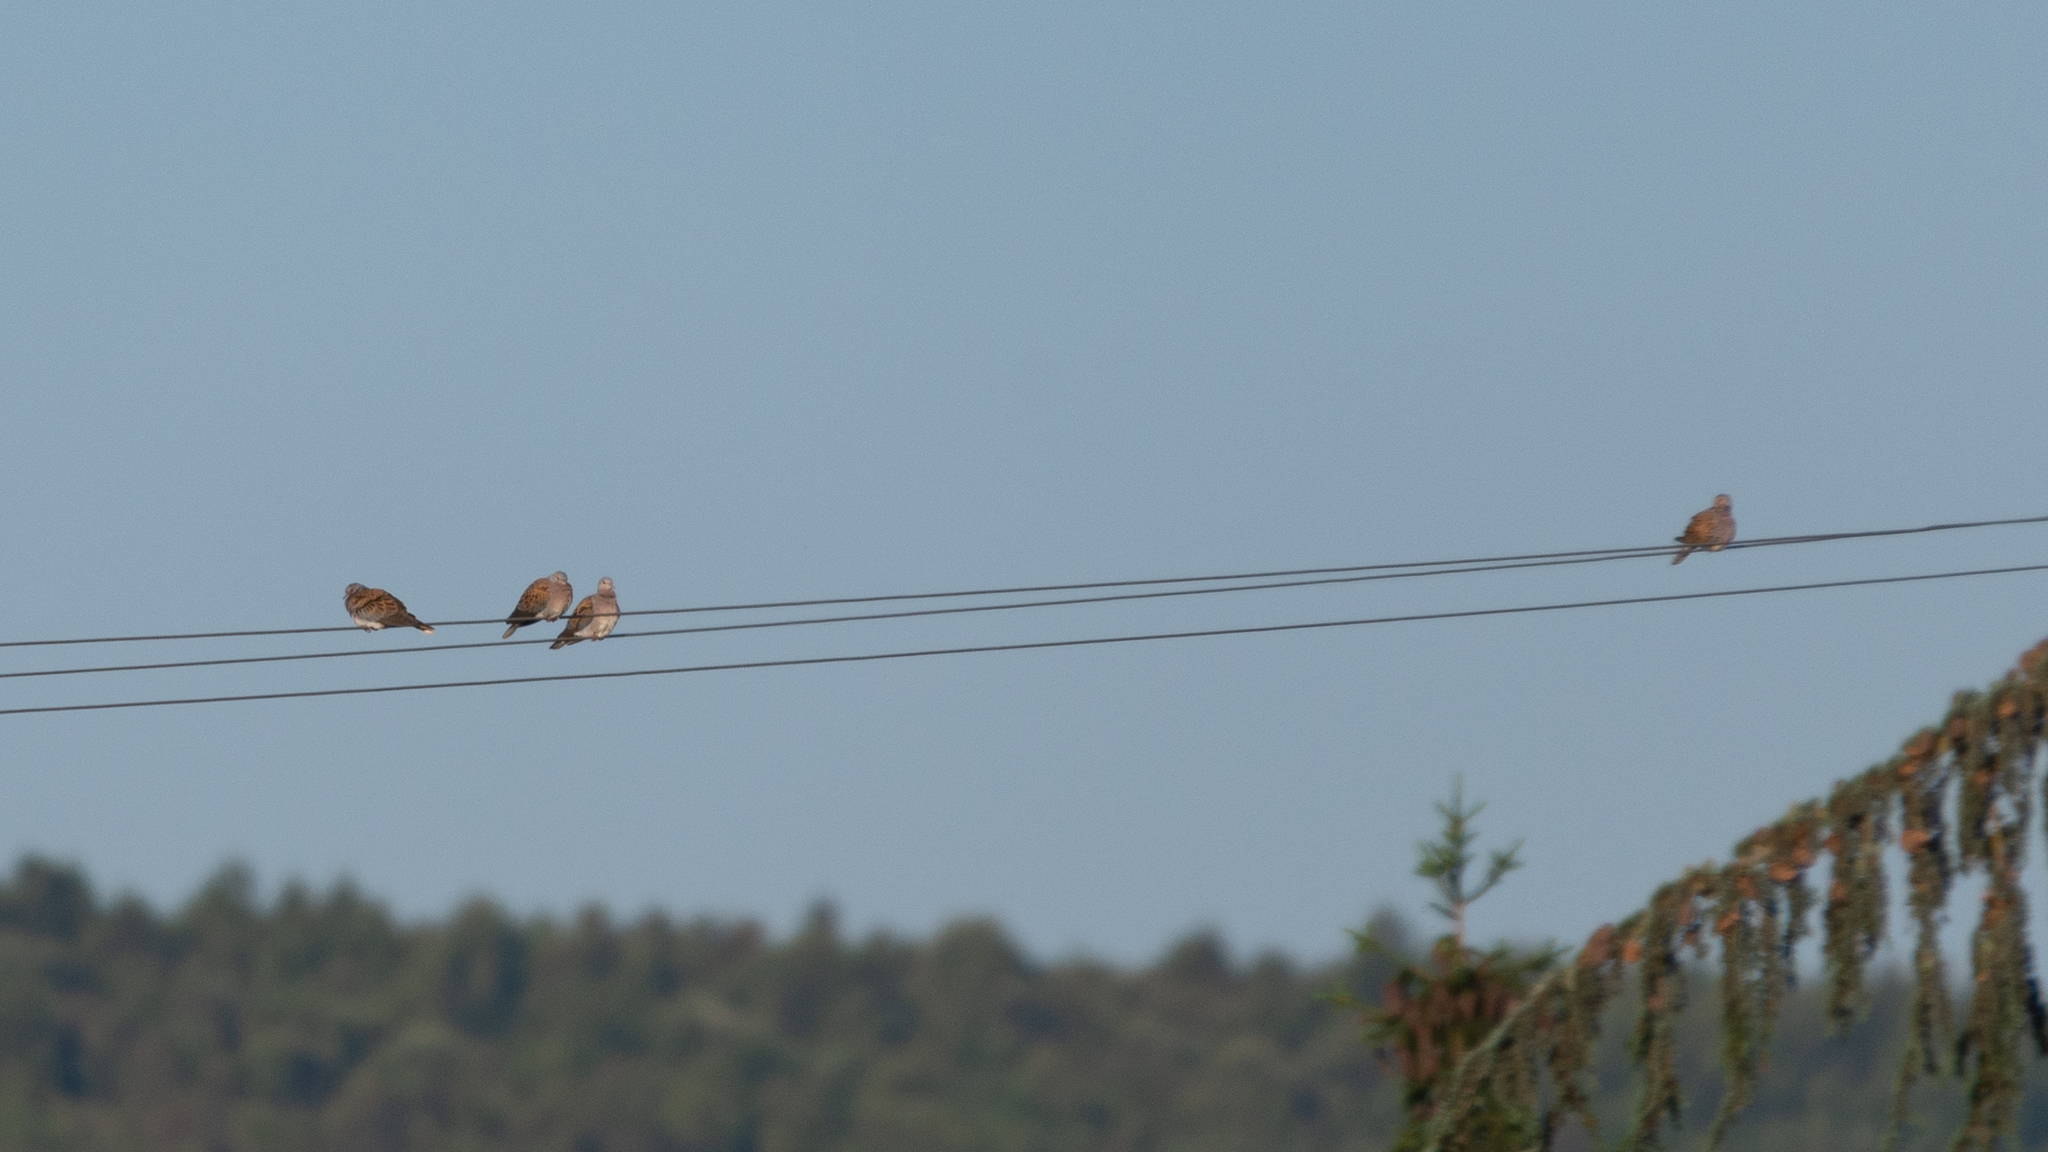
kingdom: Animalia
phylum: Chordata
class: Aves
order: Columbiformes
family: Columbidae
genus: Streptopelia
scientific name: Streptopelia turtur
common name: European turtle dove
